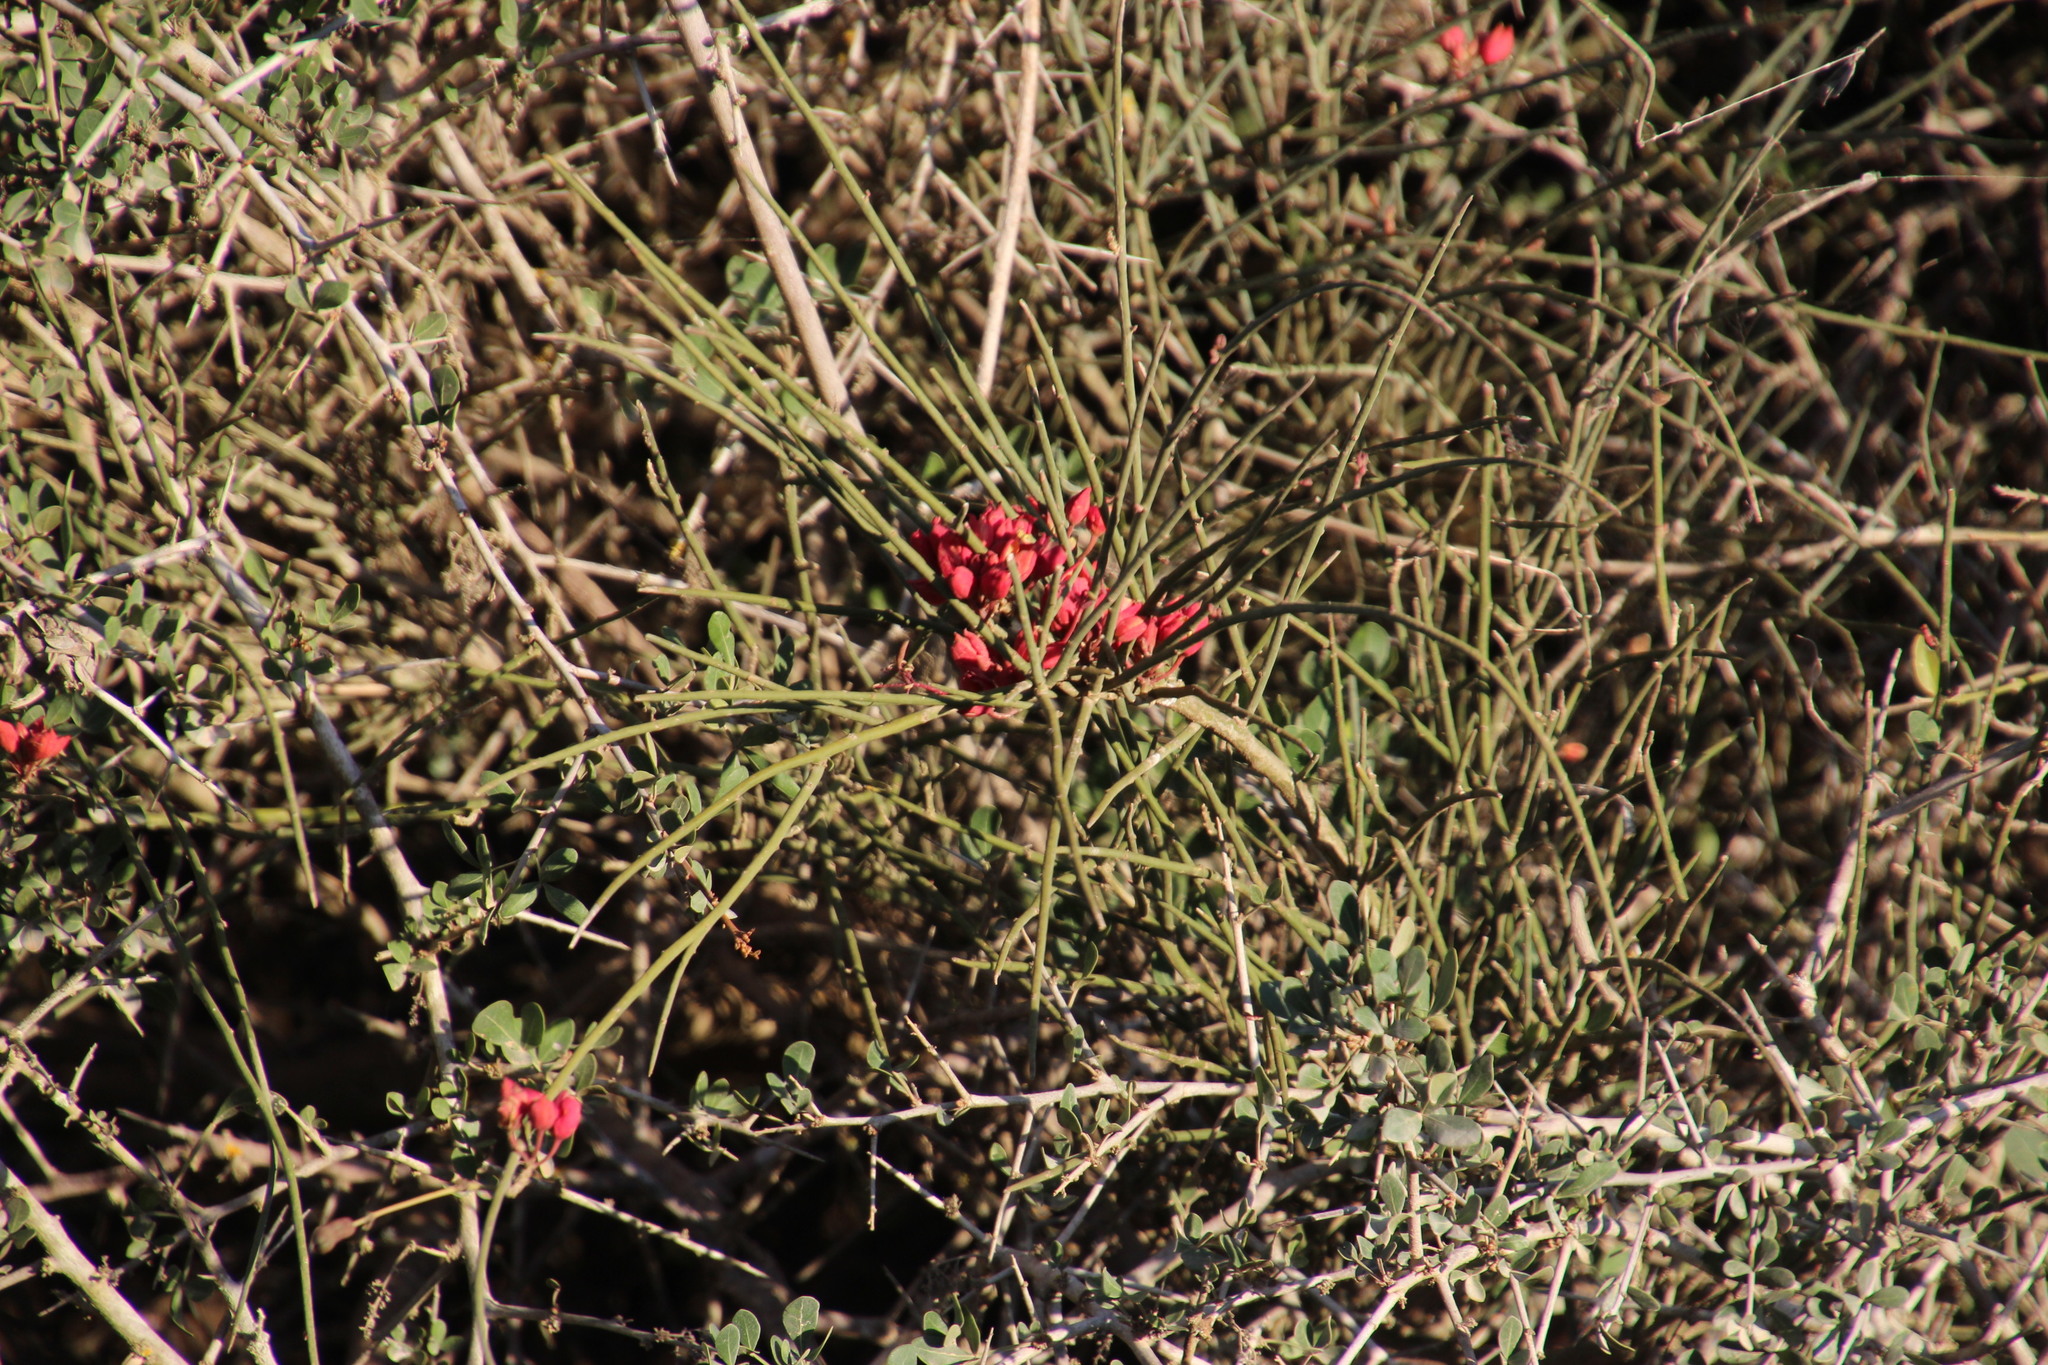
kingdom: Plantae
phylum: Tracheophyta
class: Magnoliopsida
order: Brassicales
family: Capparaceae
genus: Cadaba
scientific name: Cadaba aphylla
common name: Black storm
